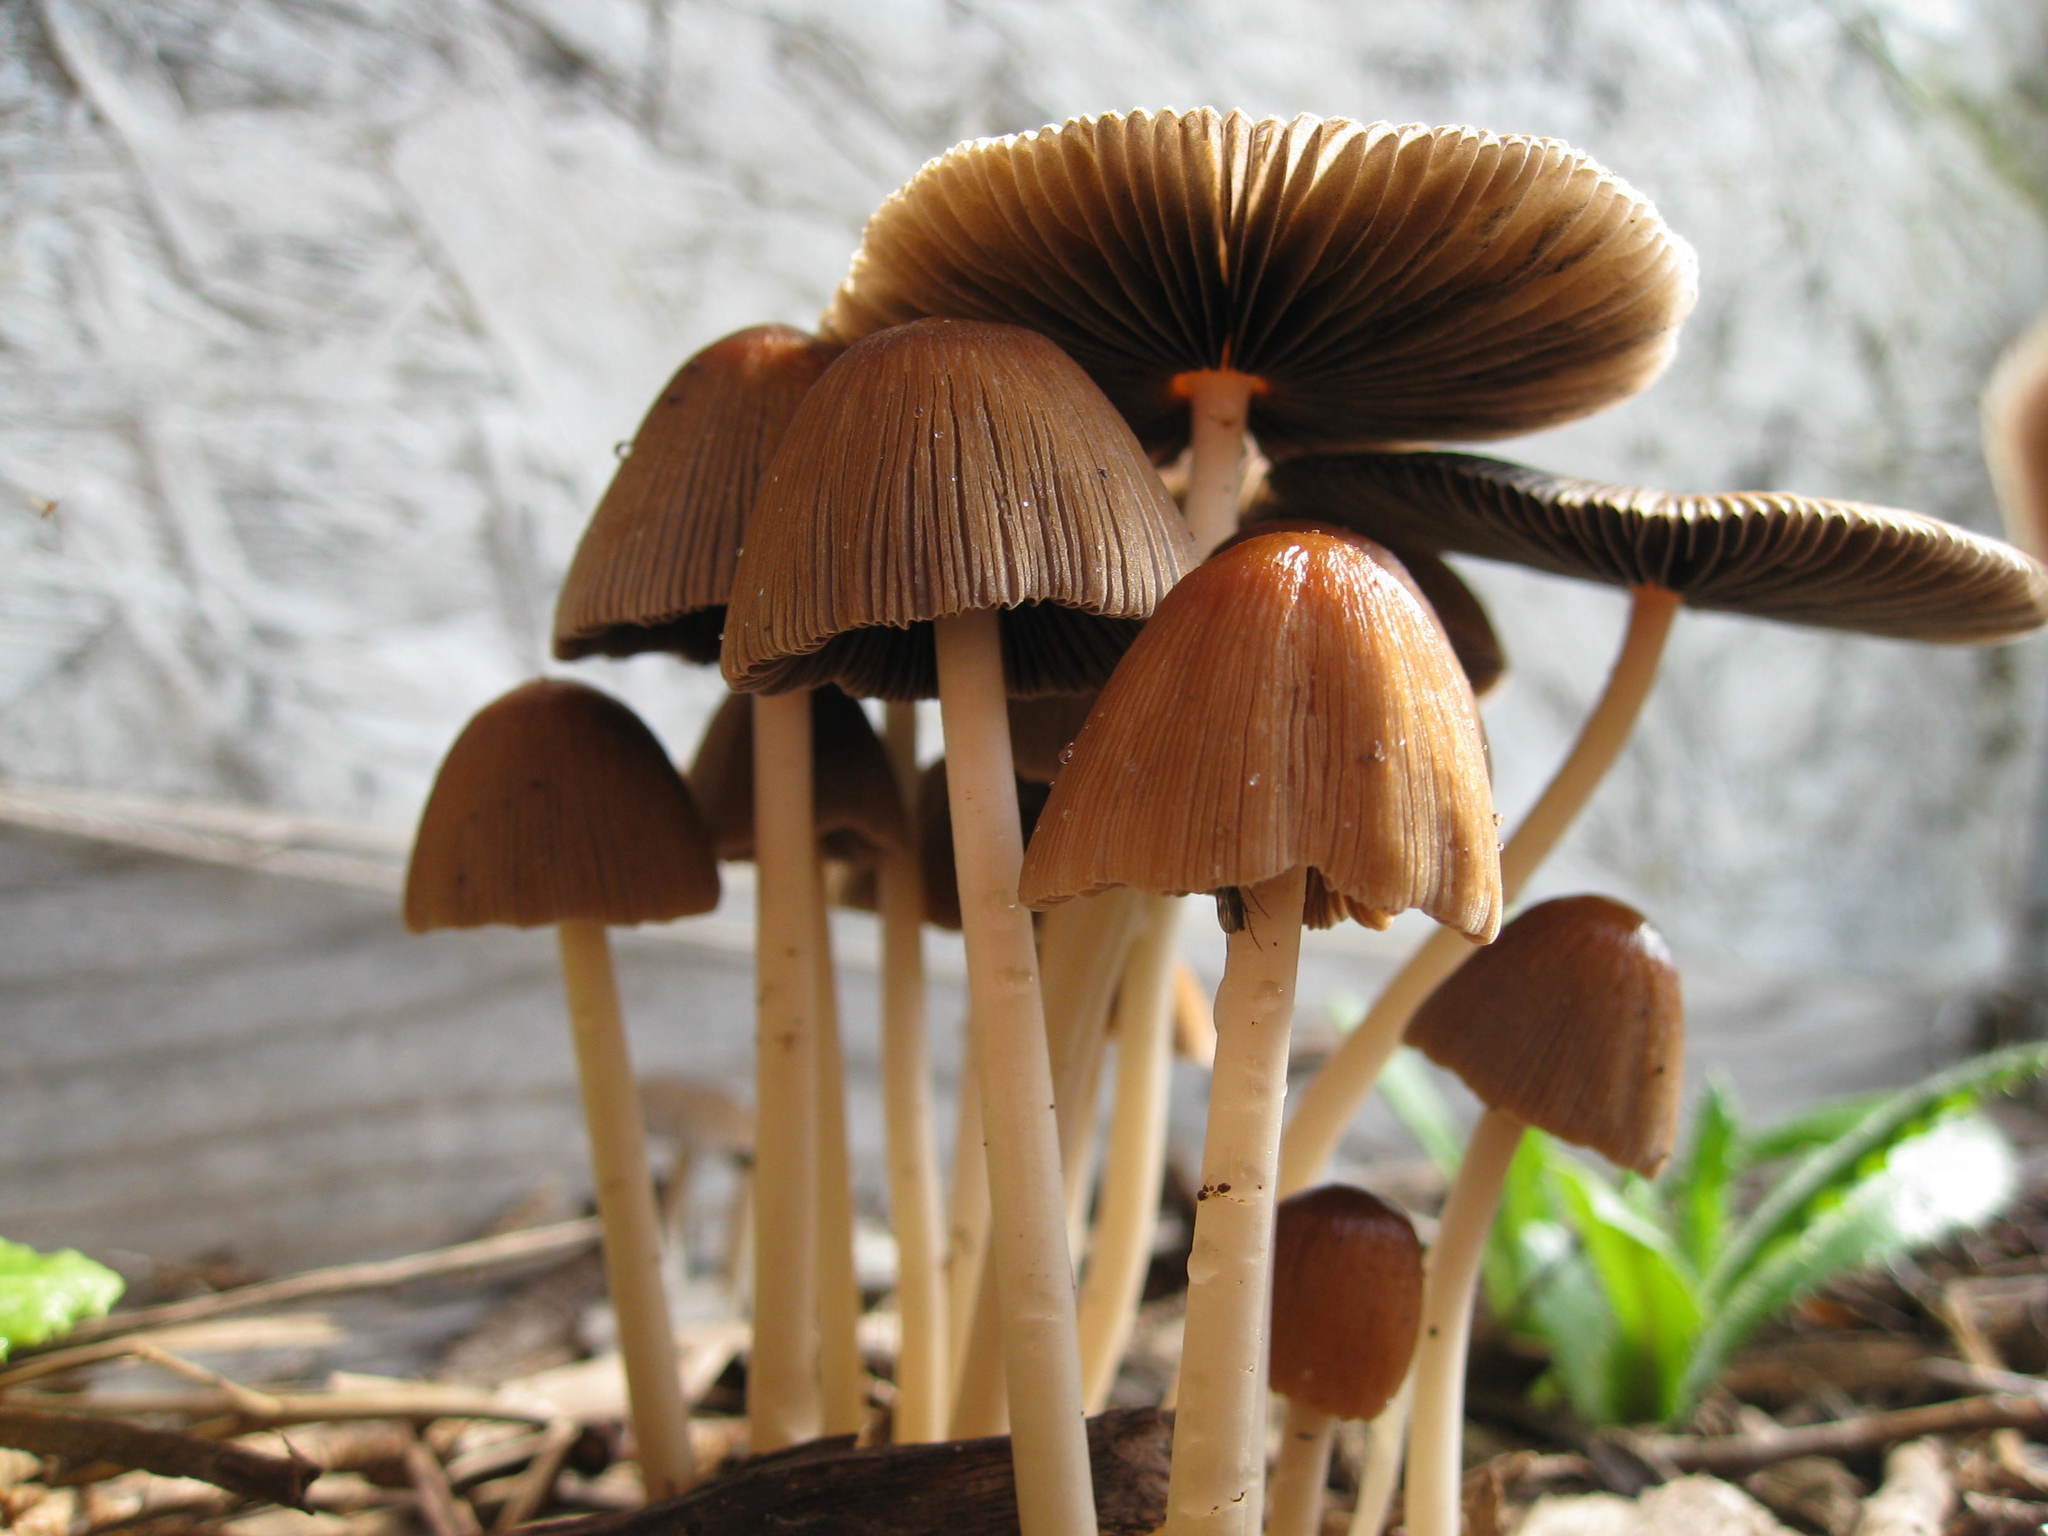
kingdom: Fungi
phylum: Basidiomycota
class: Agaricomycetes
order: Agaricales
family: Psathyrellaceae
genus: Coprinellus
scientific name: Coprinellus micaceus
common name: Glistening ink-cap
